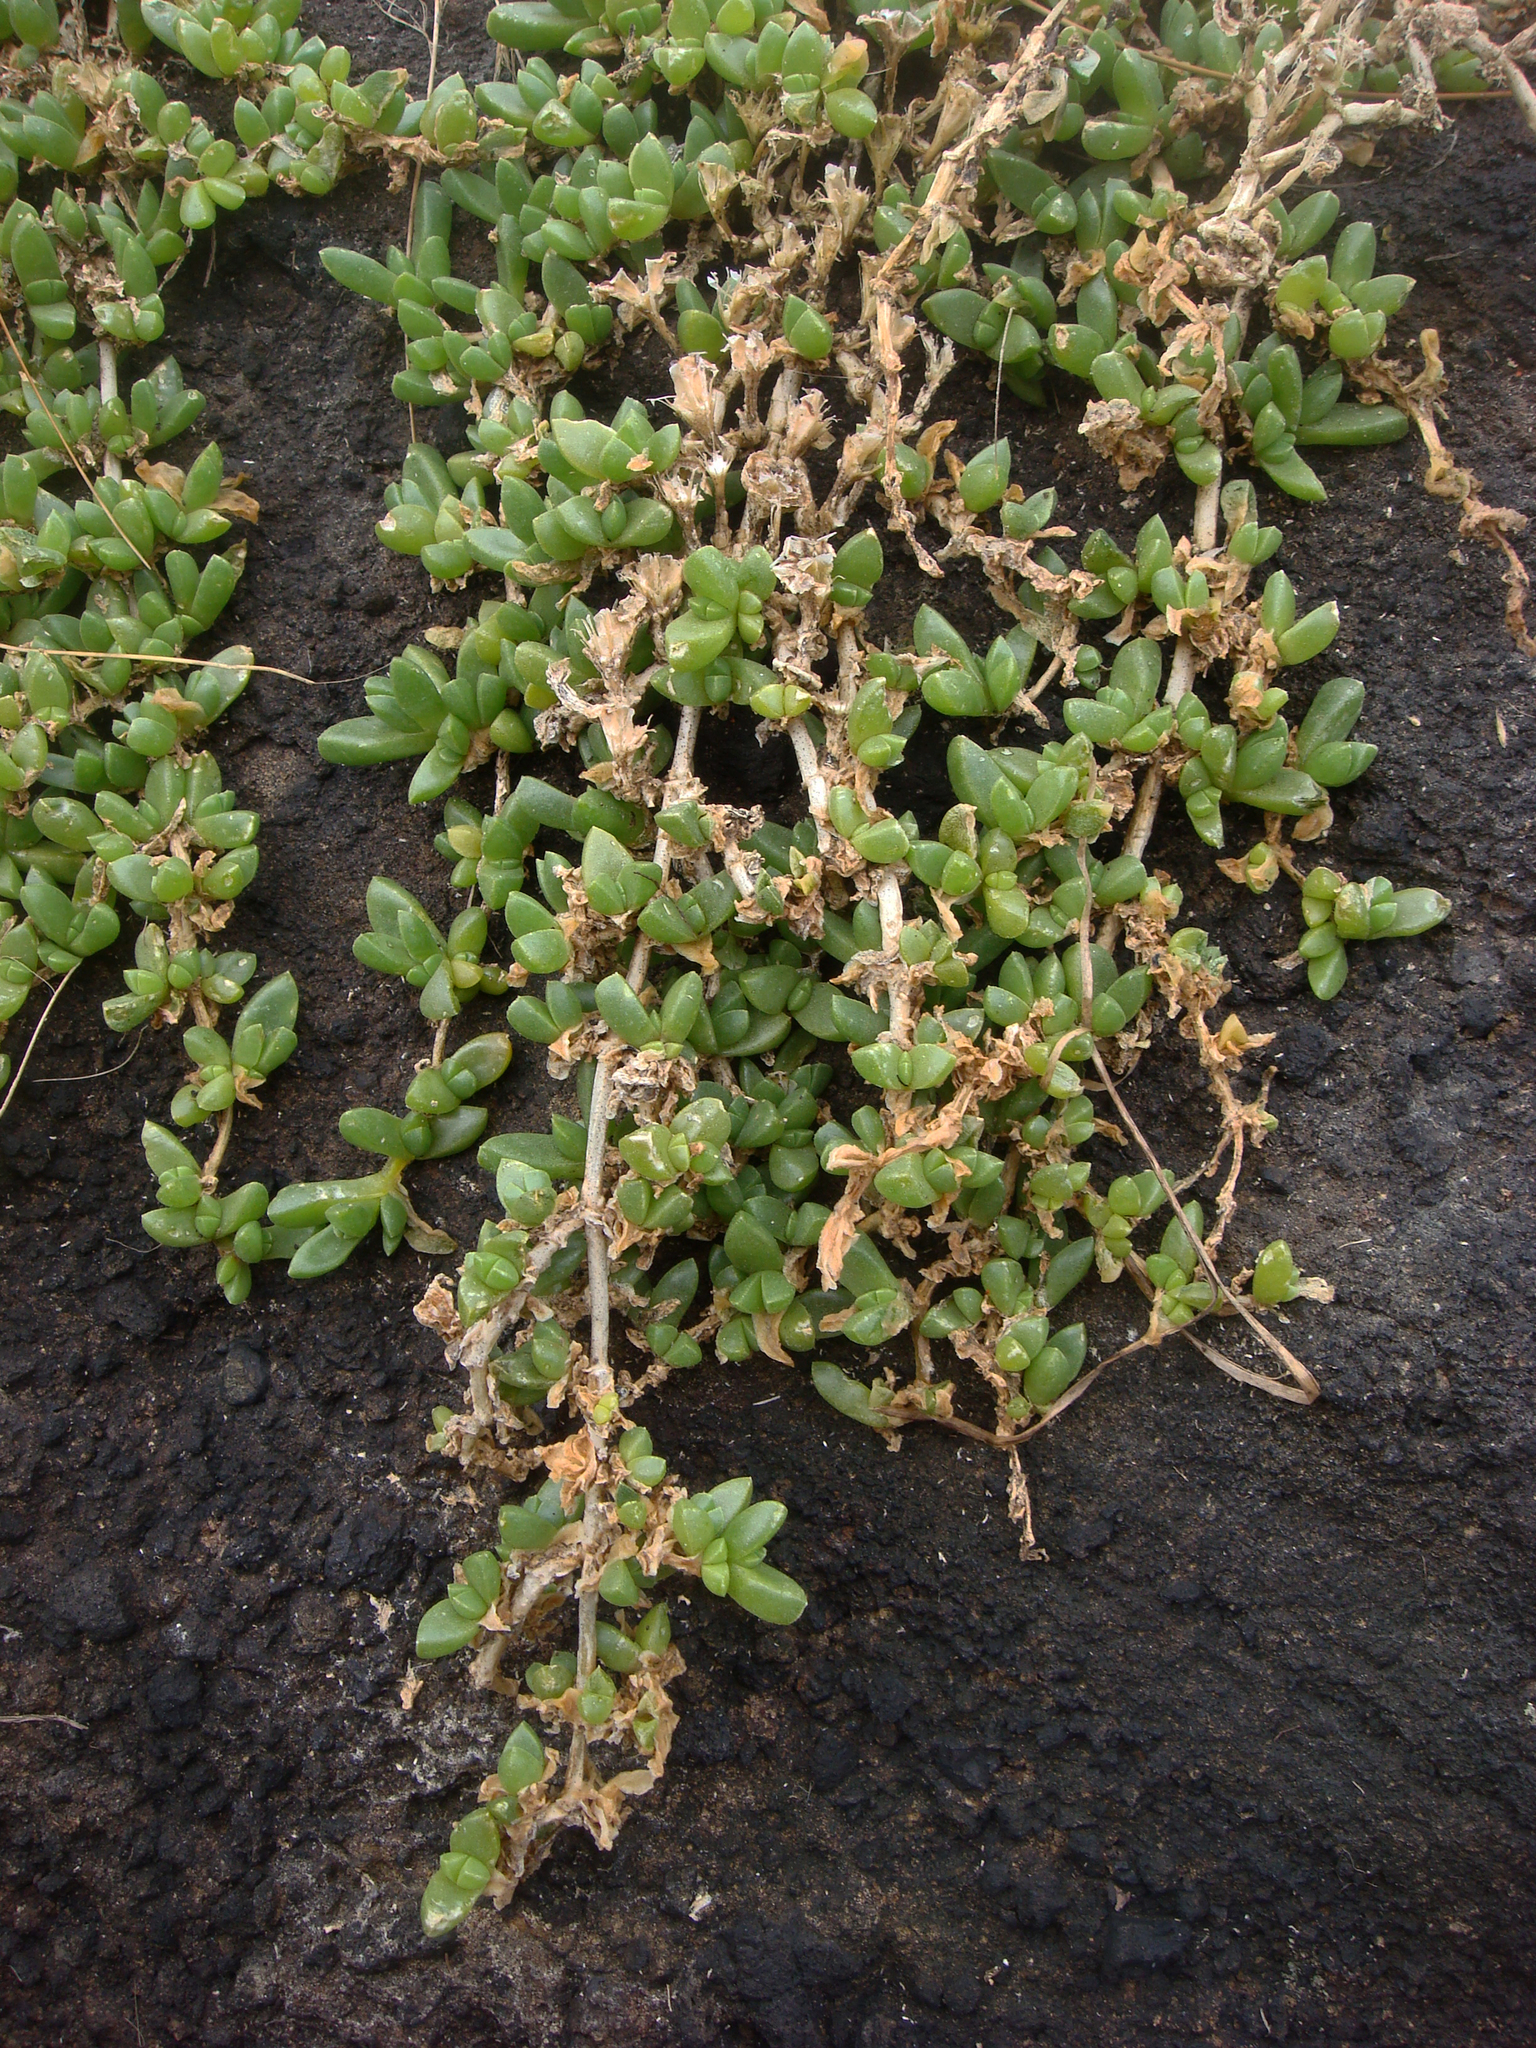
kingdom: Plantae
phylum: Tracheophyta
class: Magnoliopsida
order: Caryophyllales
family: Aizoaceae
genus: Disphyma
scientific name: Disphyma papillatum
